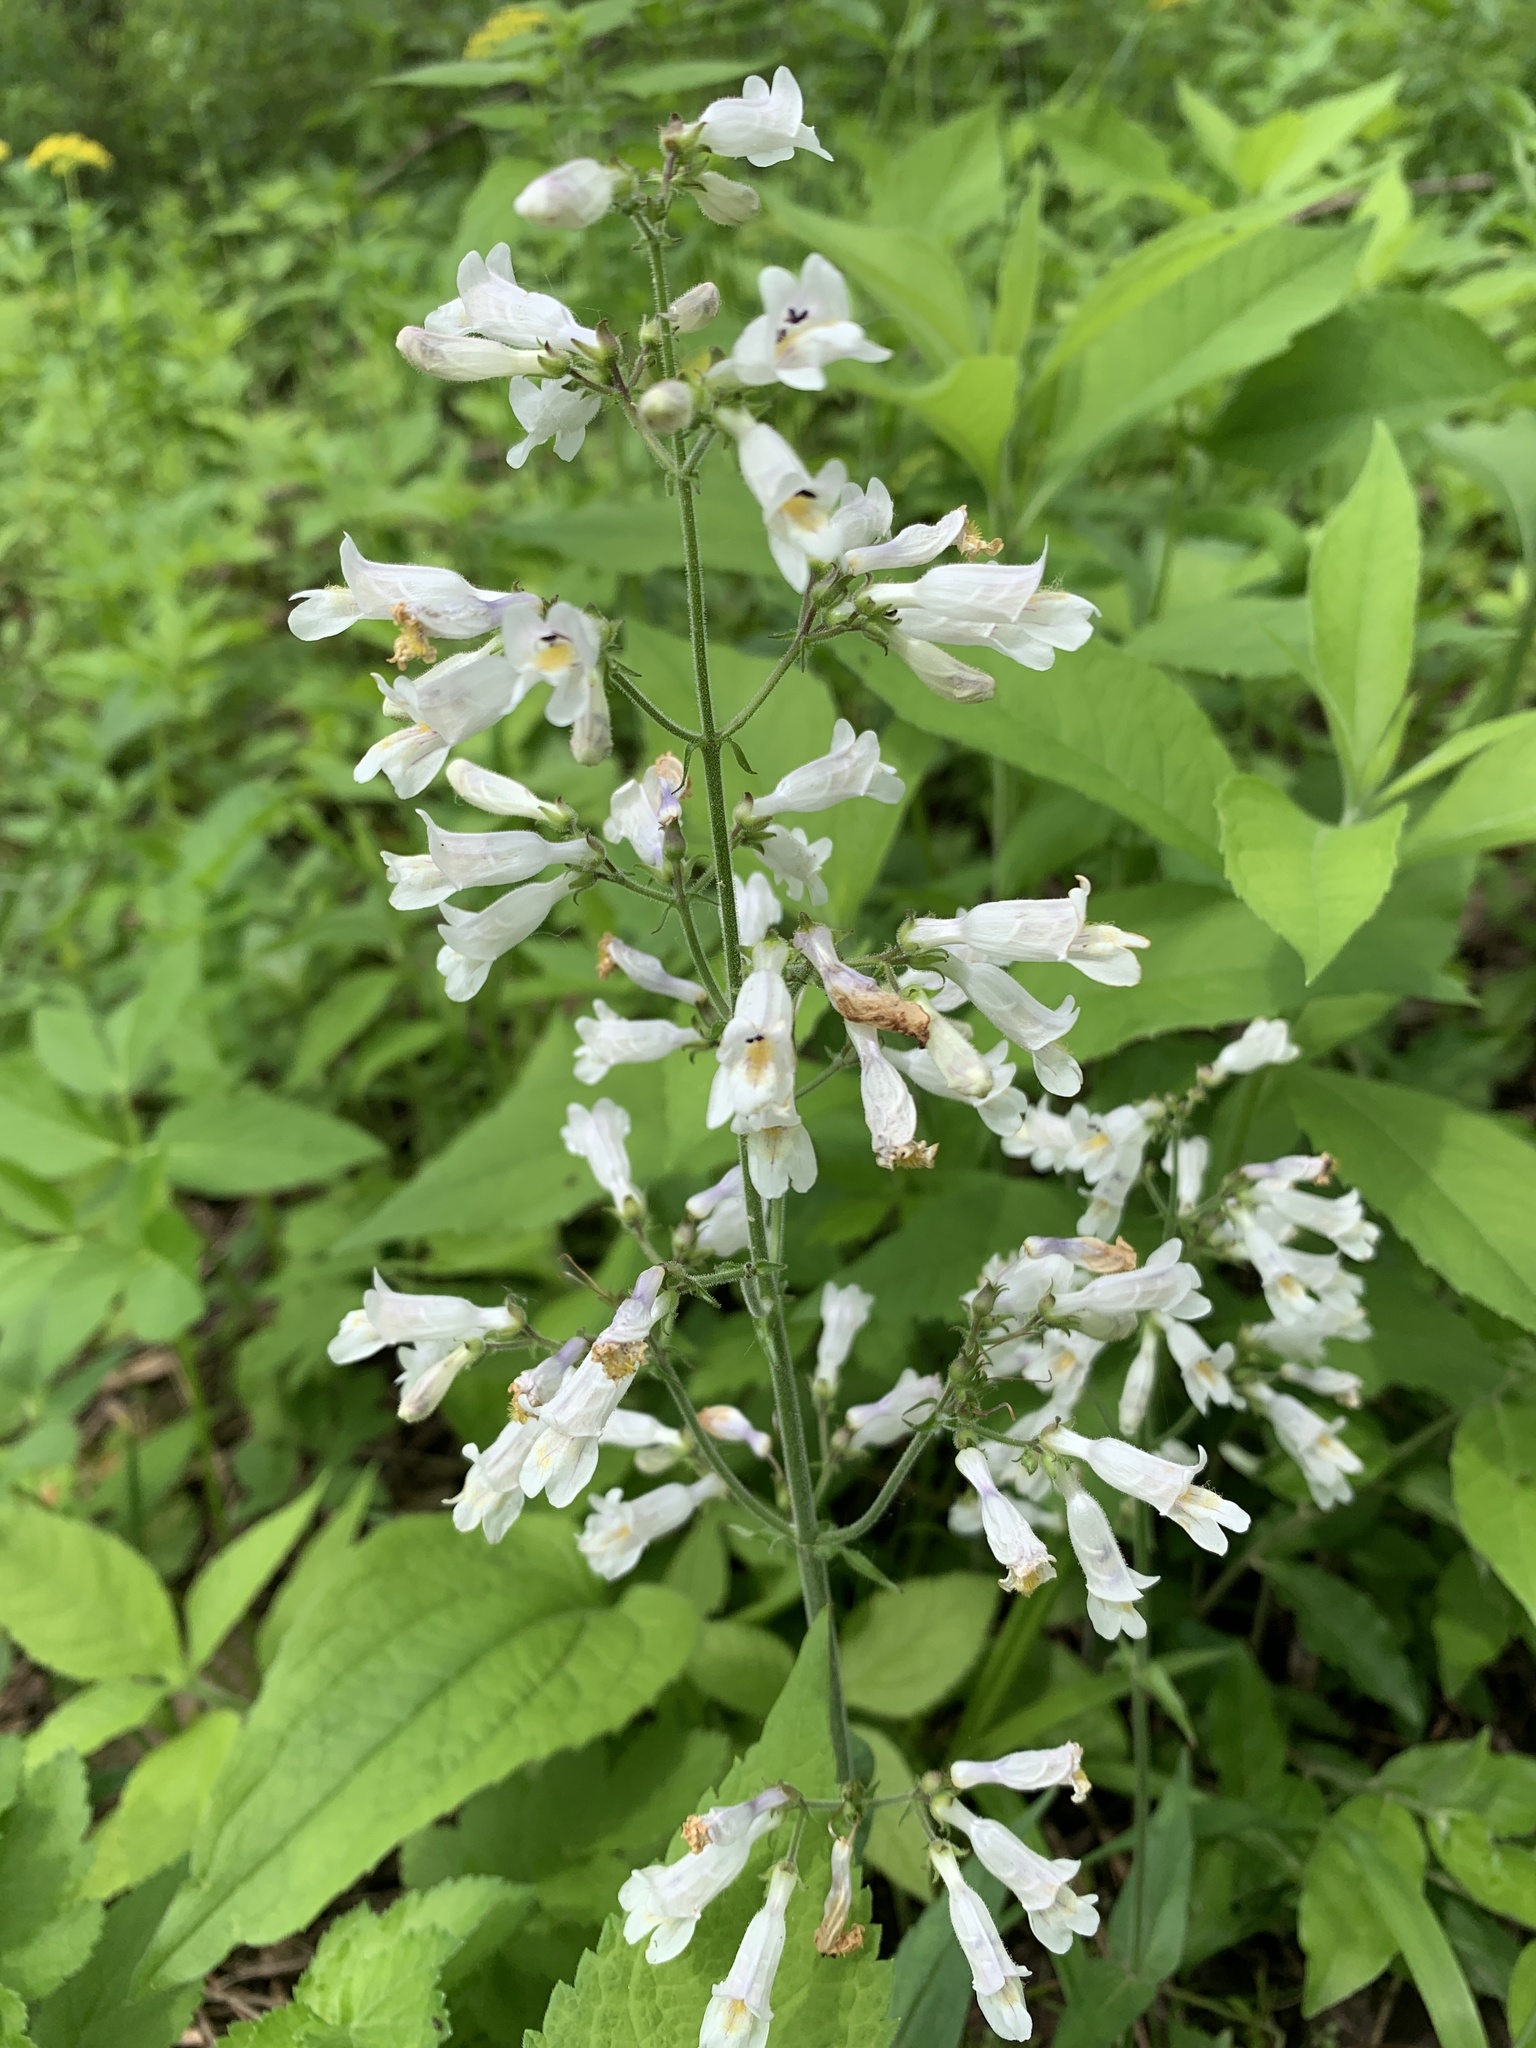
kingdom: Plantae
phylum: Tracheophyta
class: Magnoliopsida
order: Lamiales
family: Plantaginaceae
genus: Penstemon
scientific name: Penstemon pallidus
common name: Pale beardtongue
